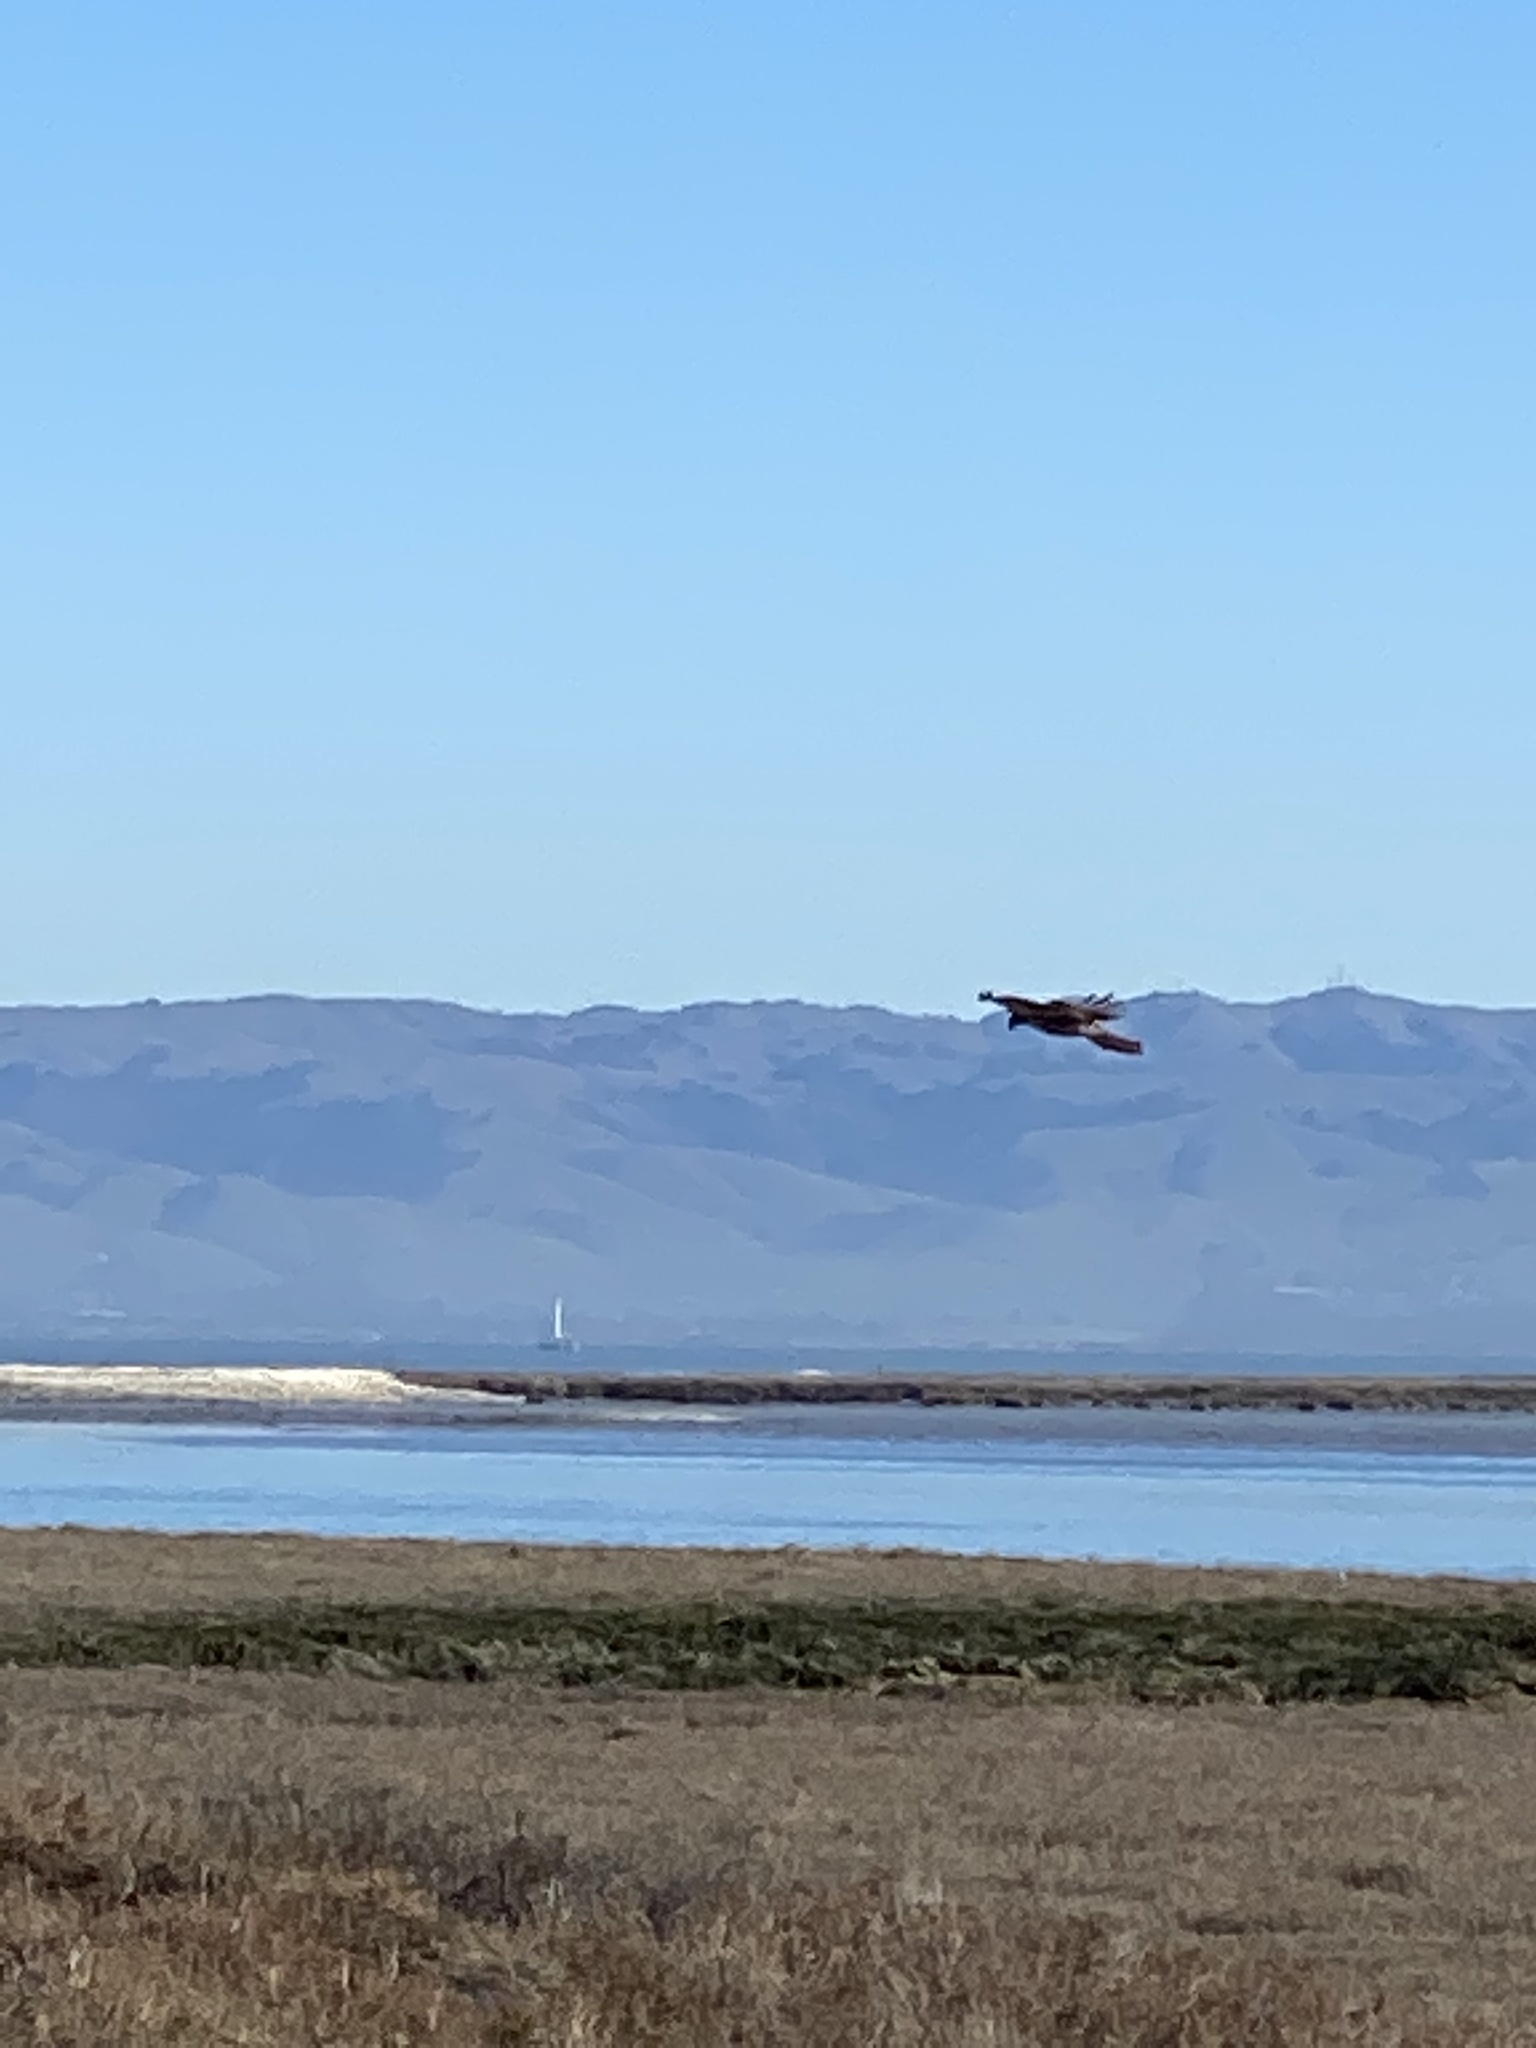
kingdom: Animalia
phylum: Chordata
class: Aves
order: Accipitriformes
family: Accipitridae
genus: Buteo
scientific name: Buteo jamaicensis
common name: Red-tailed hawk
